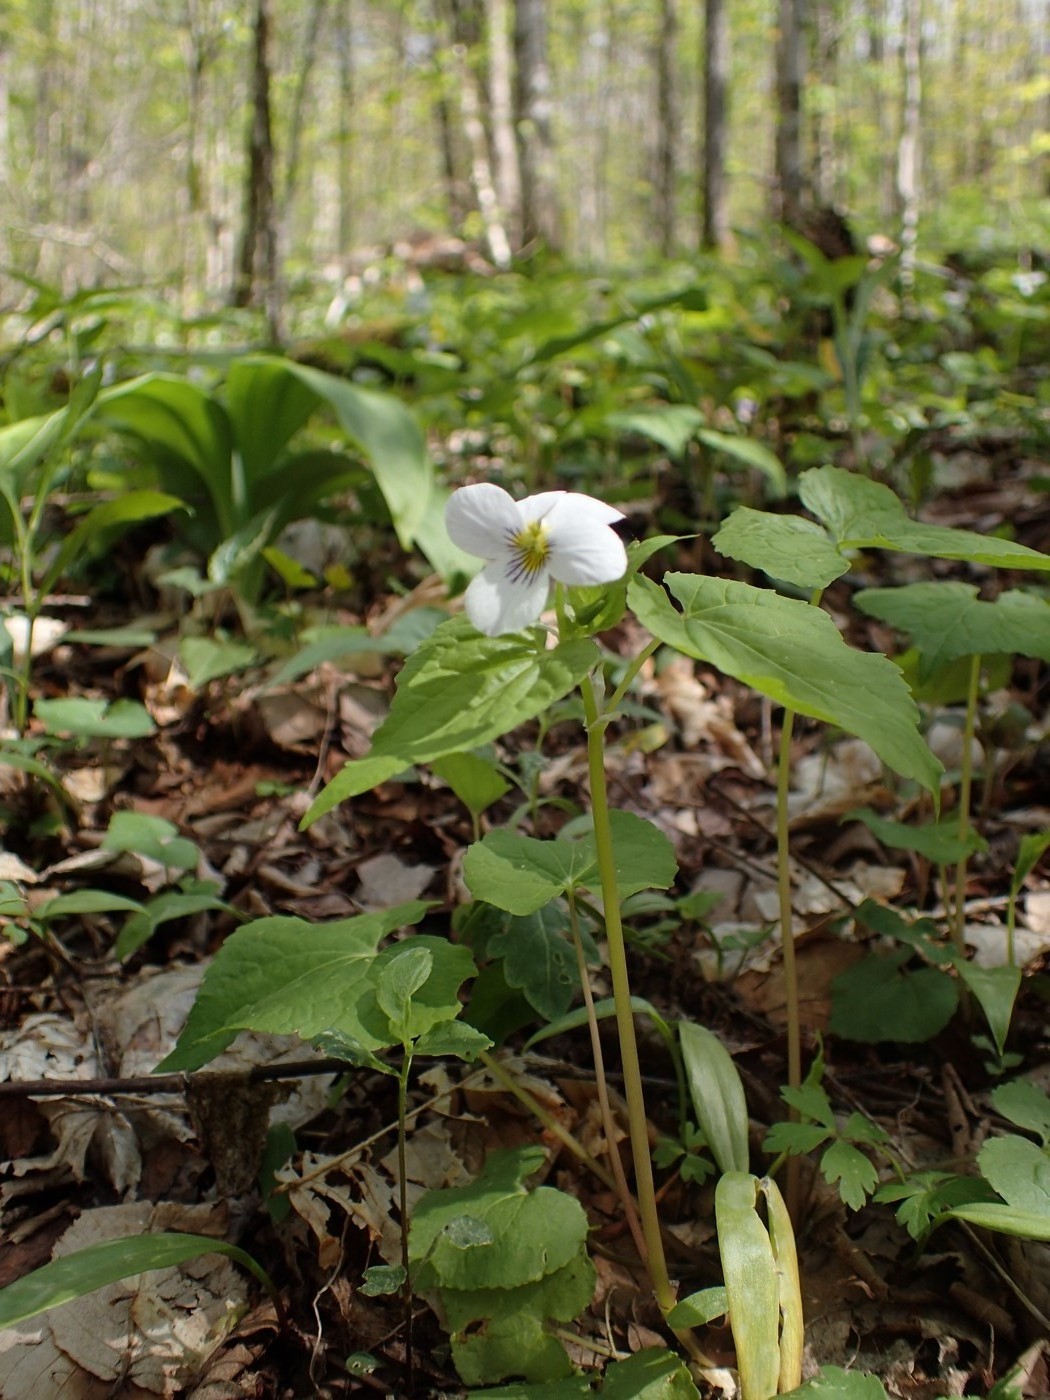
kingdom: Plantae
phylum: Tracheophyta
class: Magnoliopsida
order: Malpighiales
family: Violaceae
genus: Viola
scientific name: Viola canadensis
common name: Canada violet
